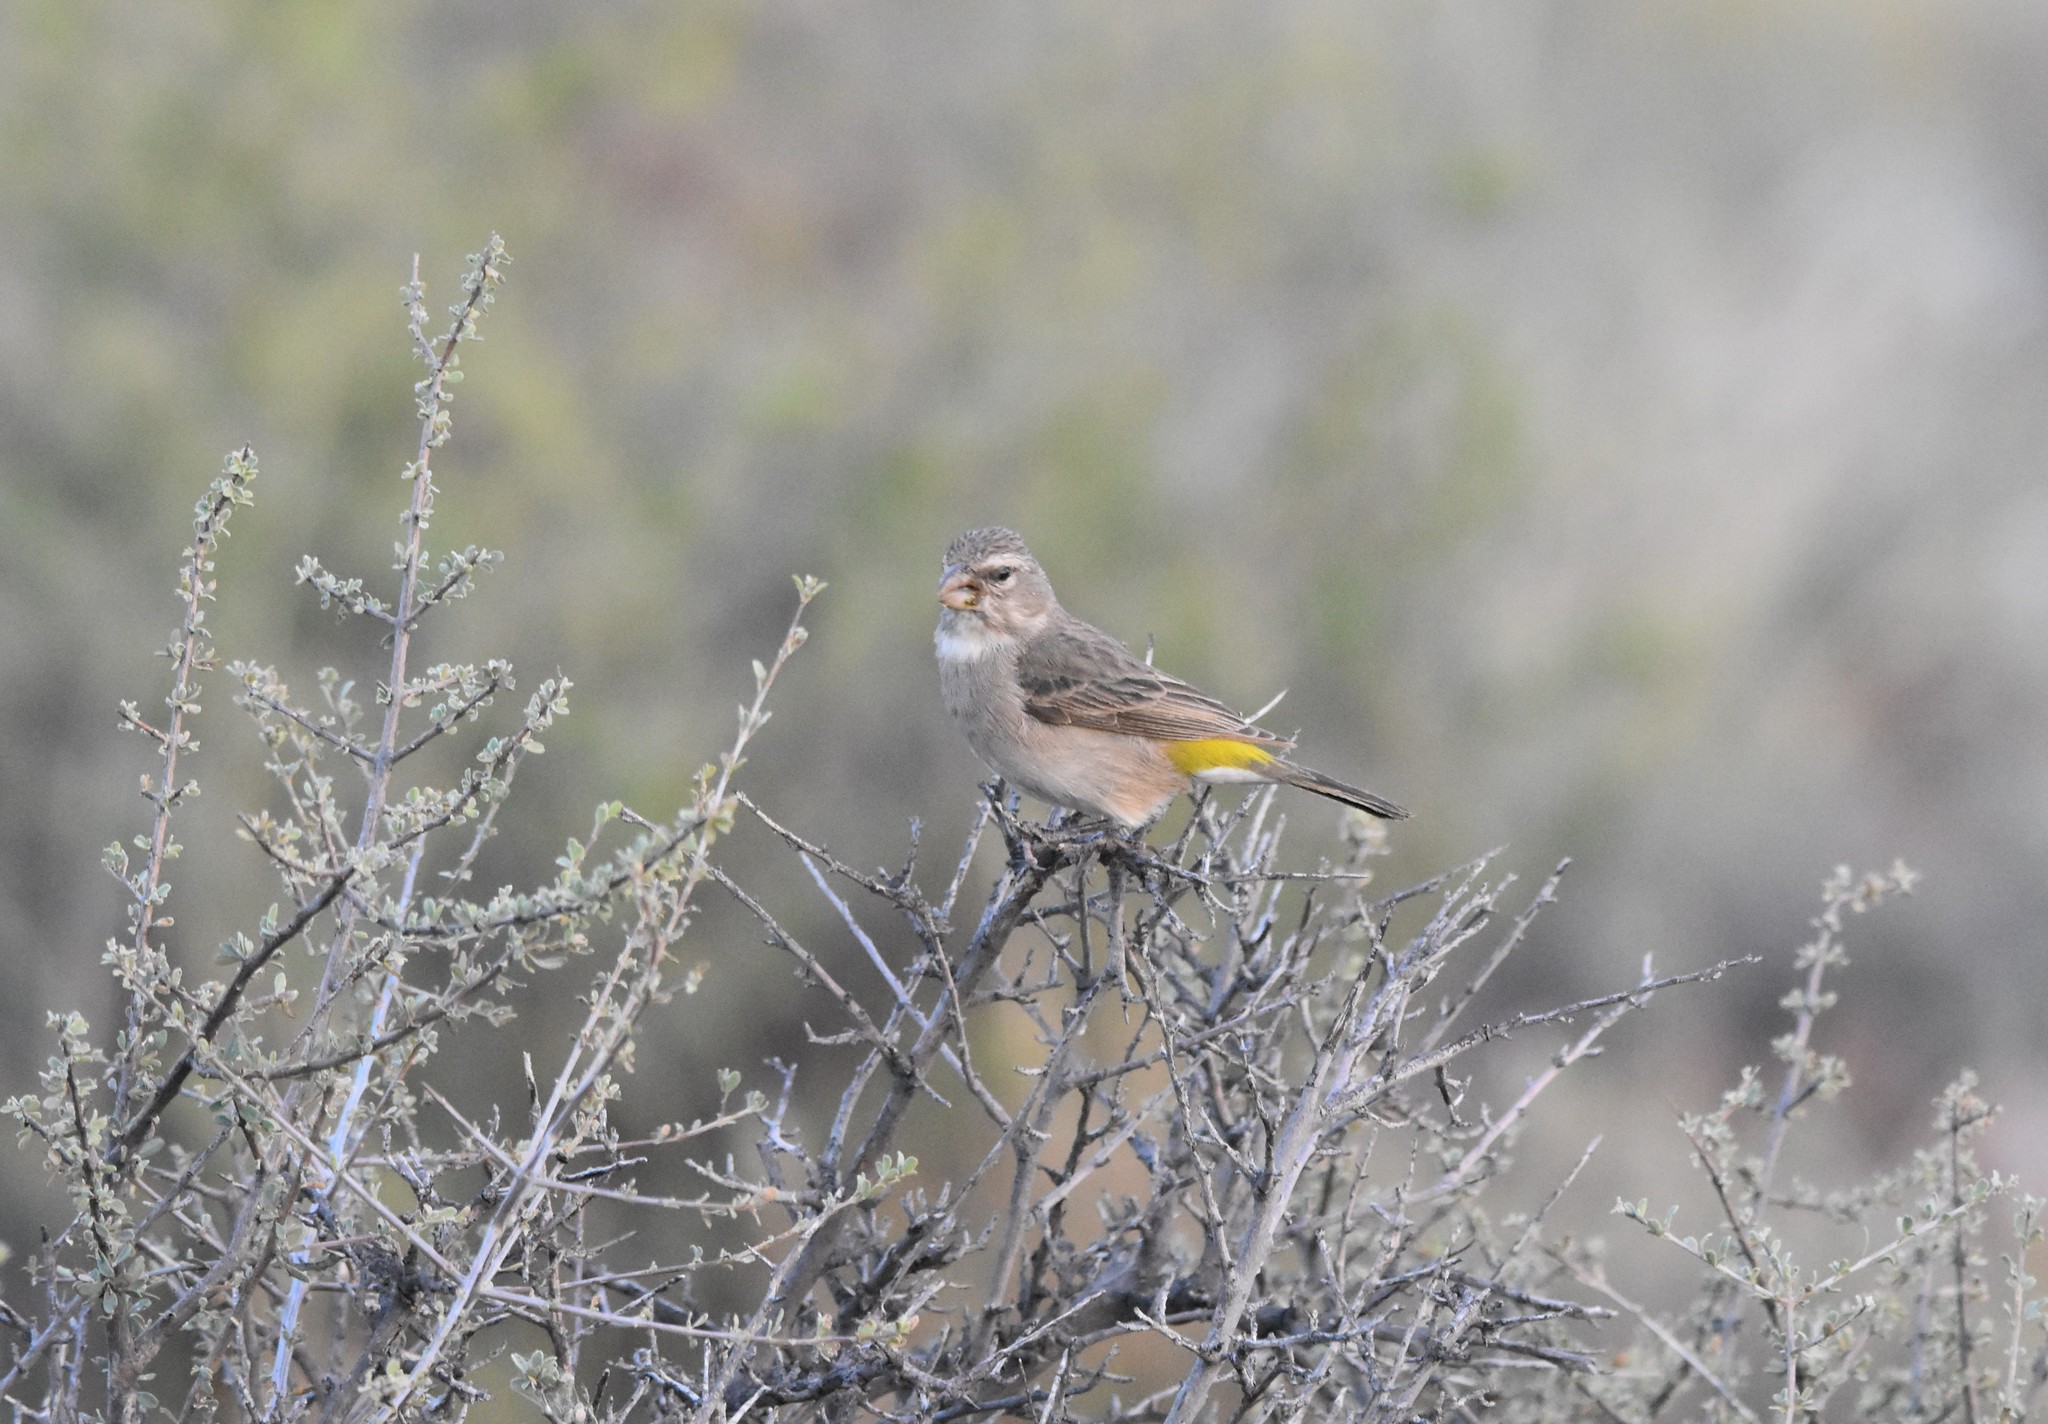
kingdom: Animalia
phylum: Chordata
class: Aves
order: Passeriformes
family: Fringillidae
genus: Crithagra
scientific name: Crithagra albogularis
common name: White-throated canary
